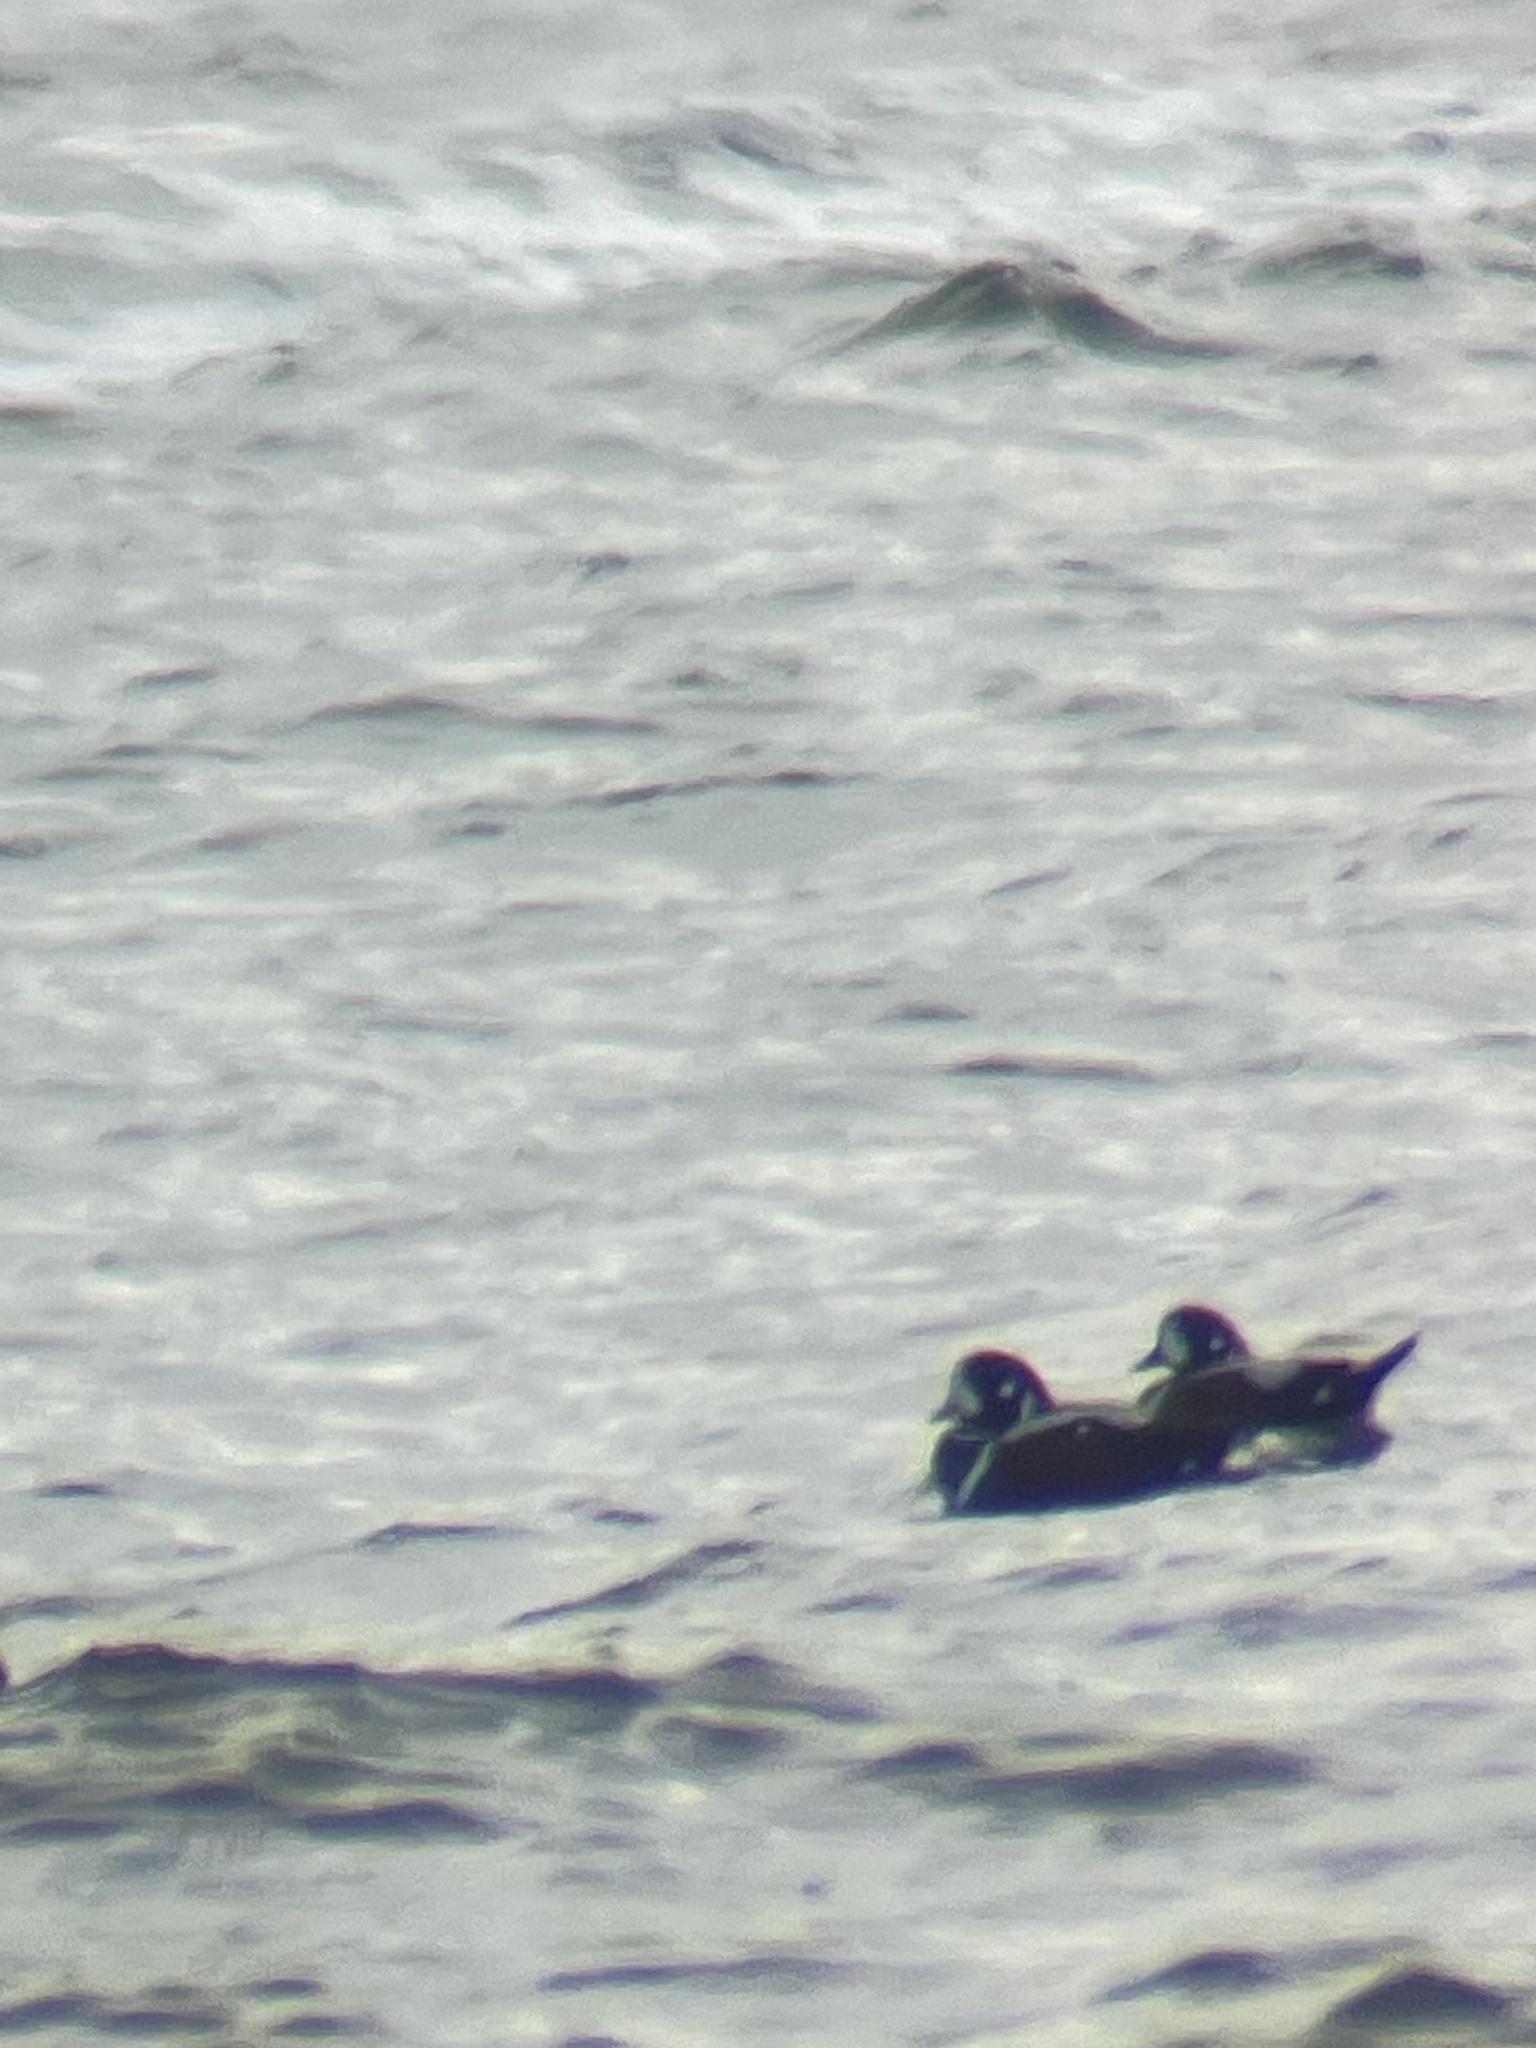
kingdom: Animalia
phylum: Chordata
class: Aves
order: Anseriformes
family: Anatidae
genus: Histrionicus
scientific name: Histrionicus histrionicus
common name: Harlequin duck
